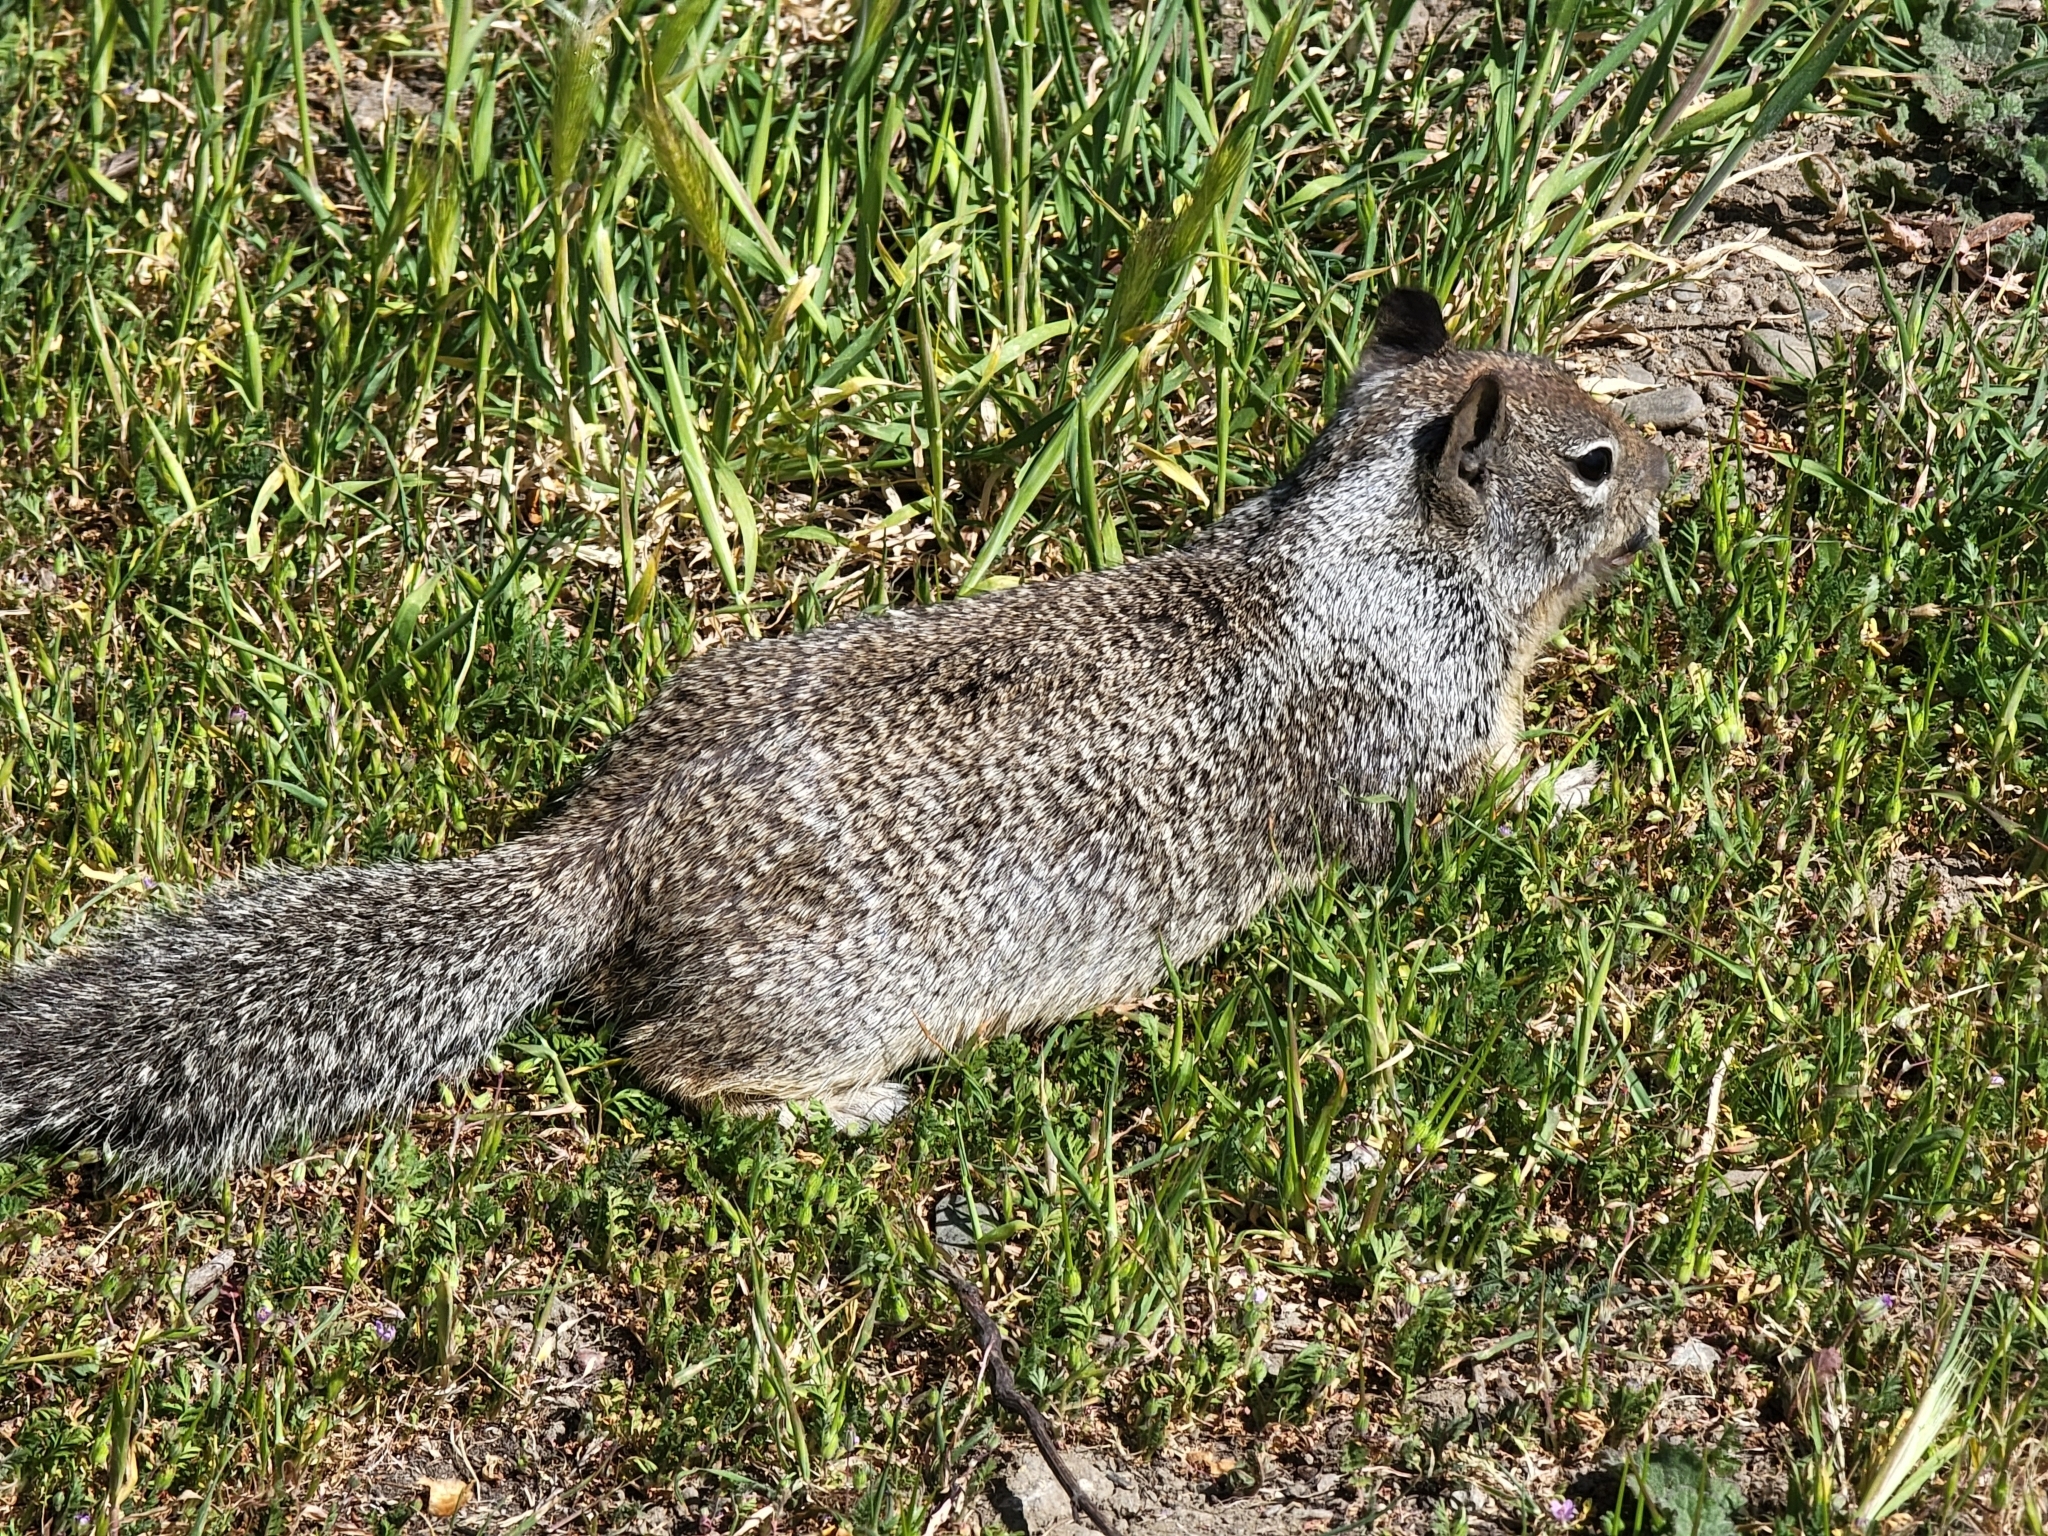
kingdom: Animalia
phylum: Chordata
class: Mammalia
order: Rodentia
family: Sciuridae
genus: Otospermophilus
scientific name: Otospermophilus beecheyi
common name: California ground squirrel
